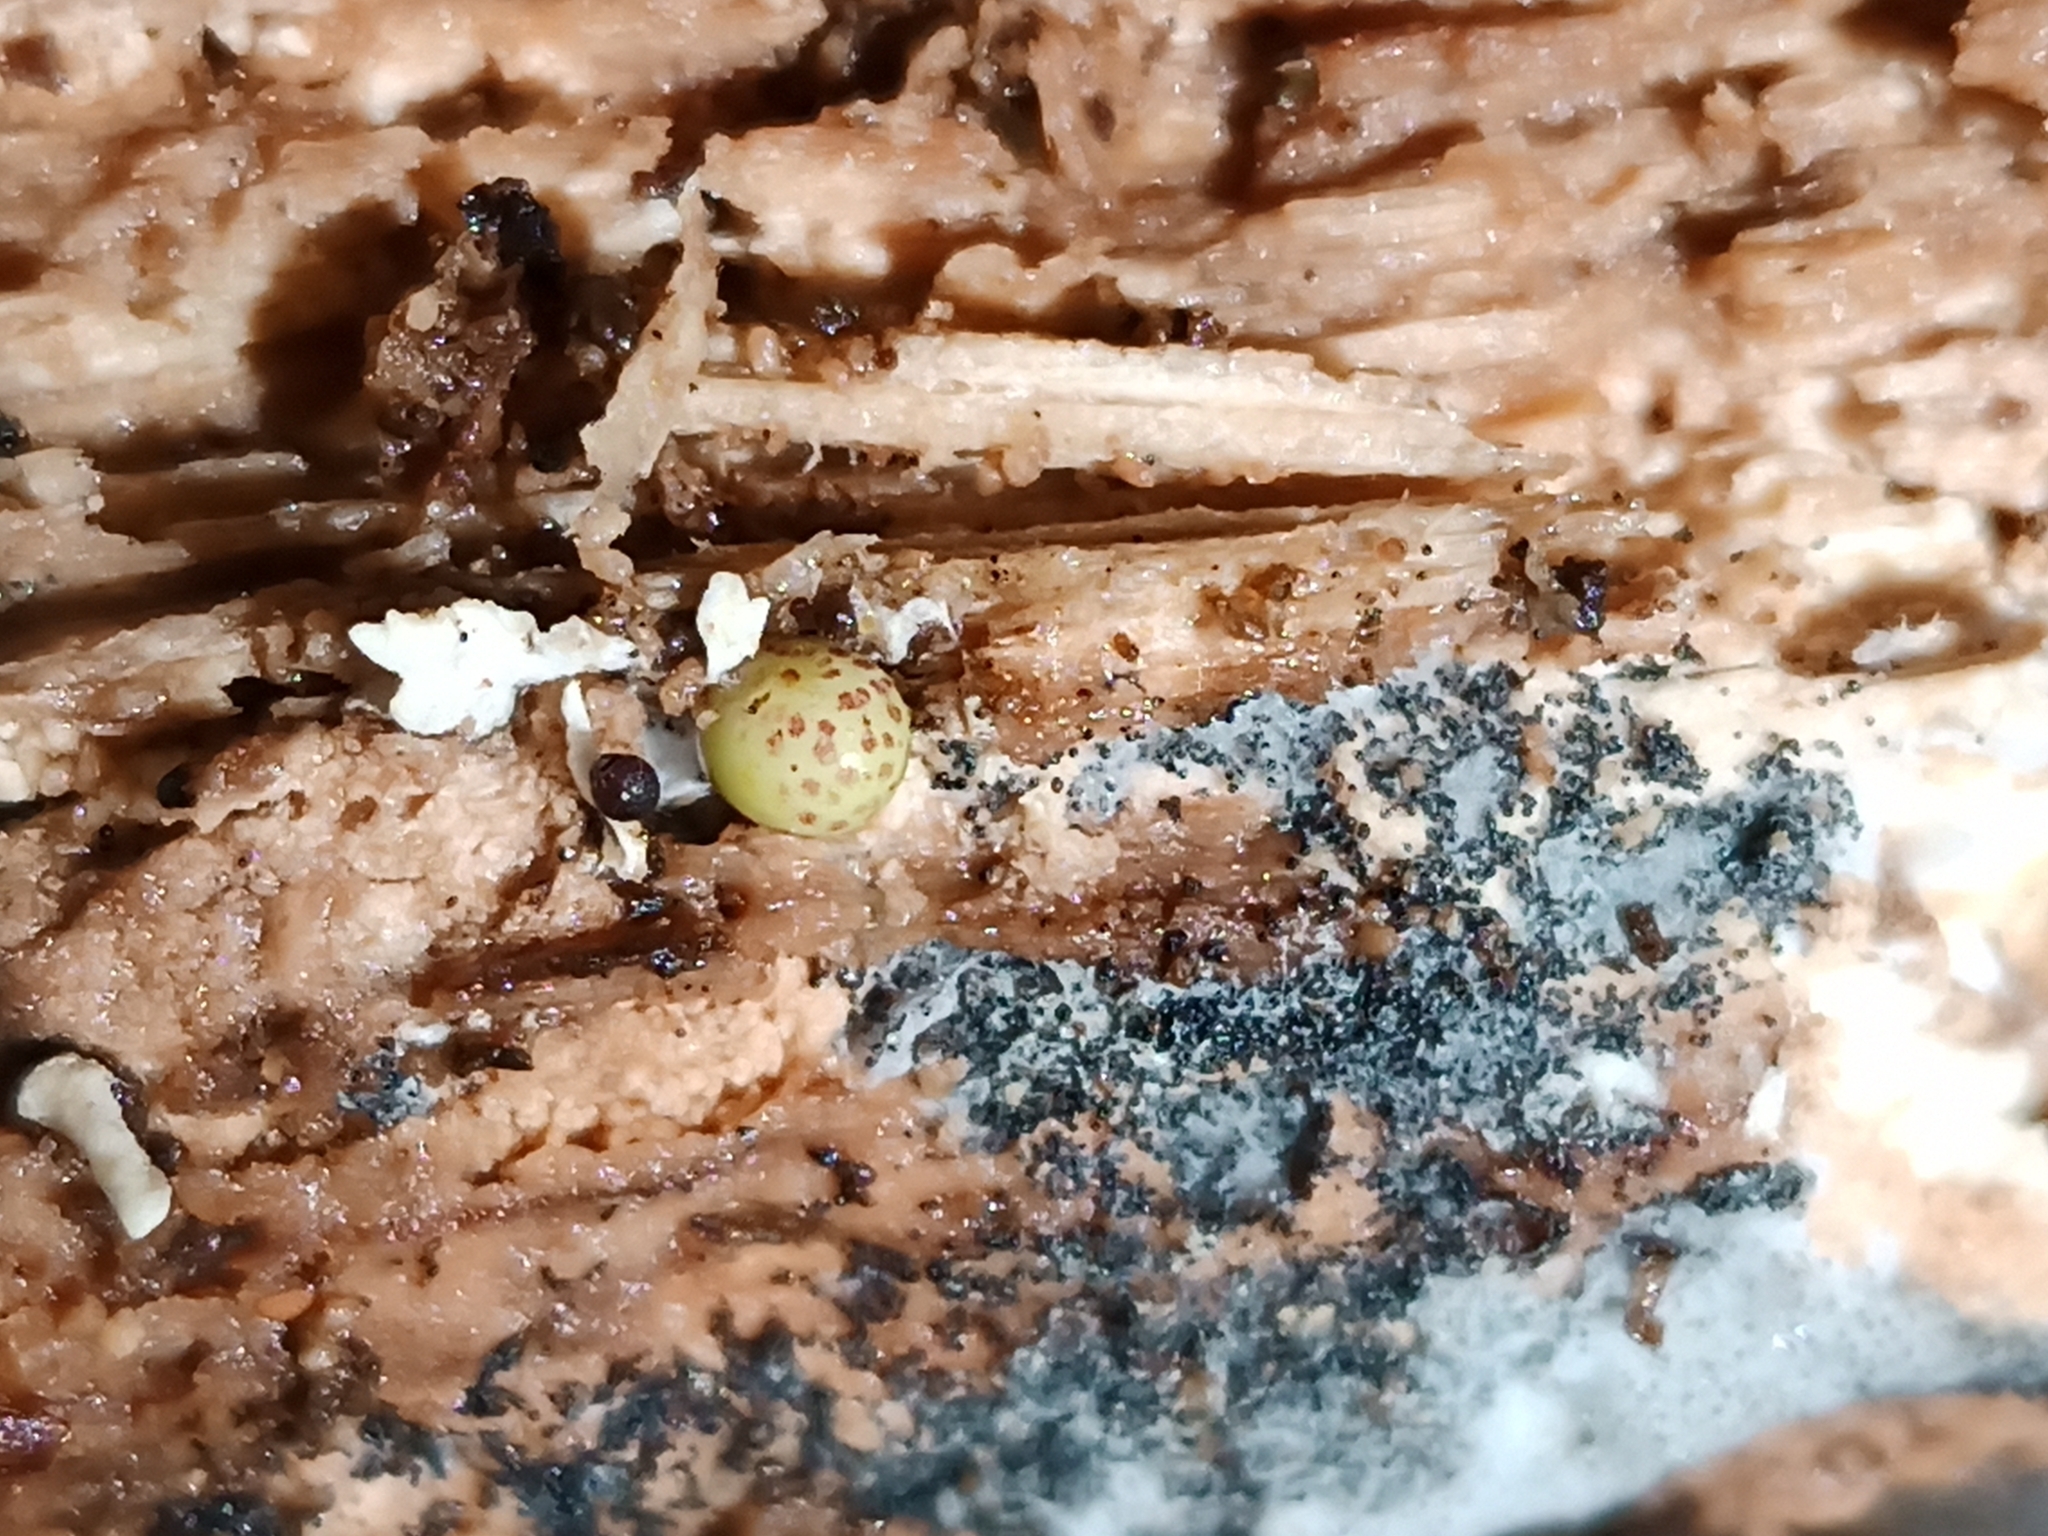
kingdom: Animalia
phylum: Arthropoda
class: Insecta
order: Hymenoptera
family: Cynipidae
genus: Neuroterus
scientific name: Neuroterus anthracinus
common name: Oyster gall
